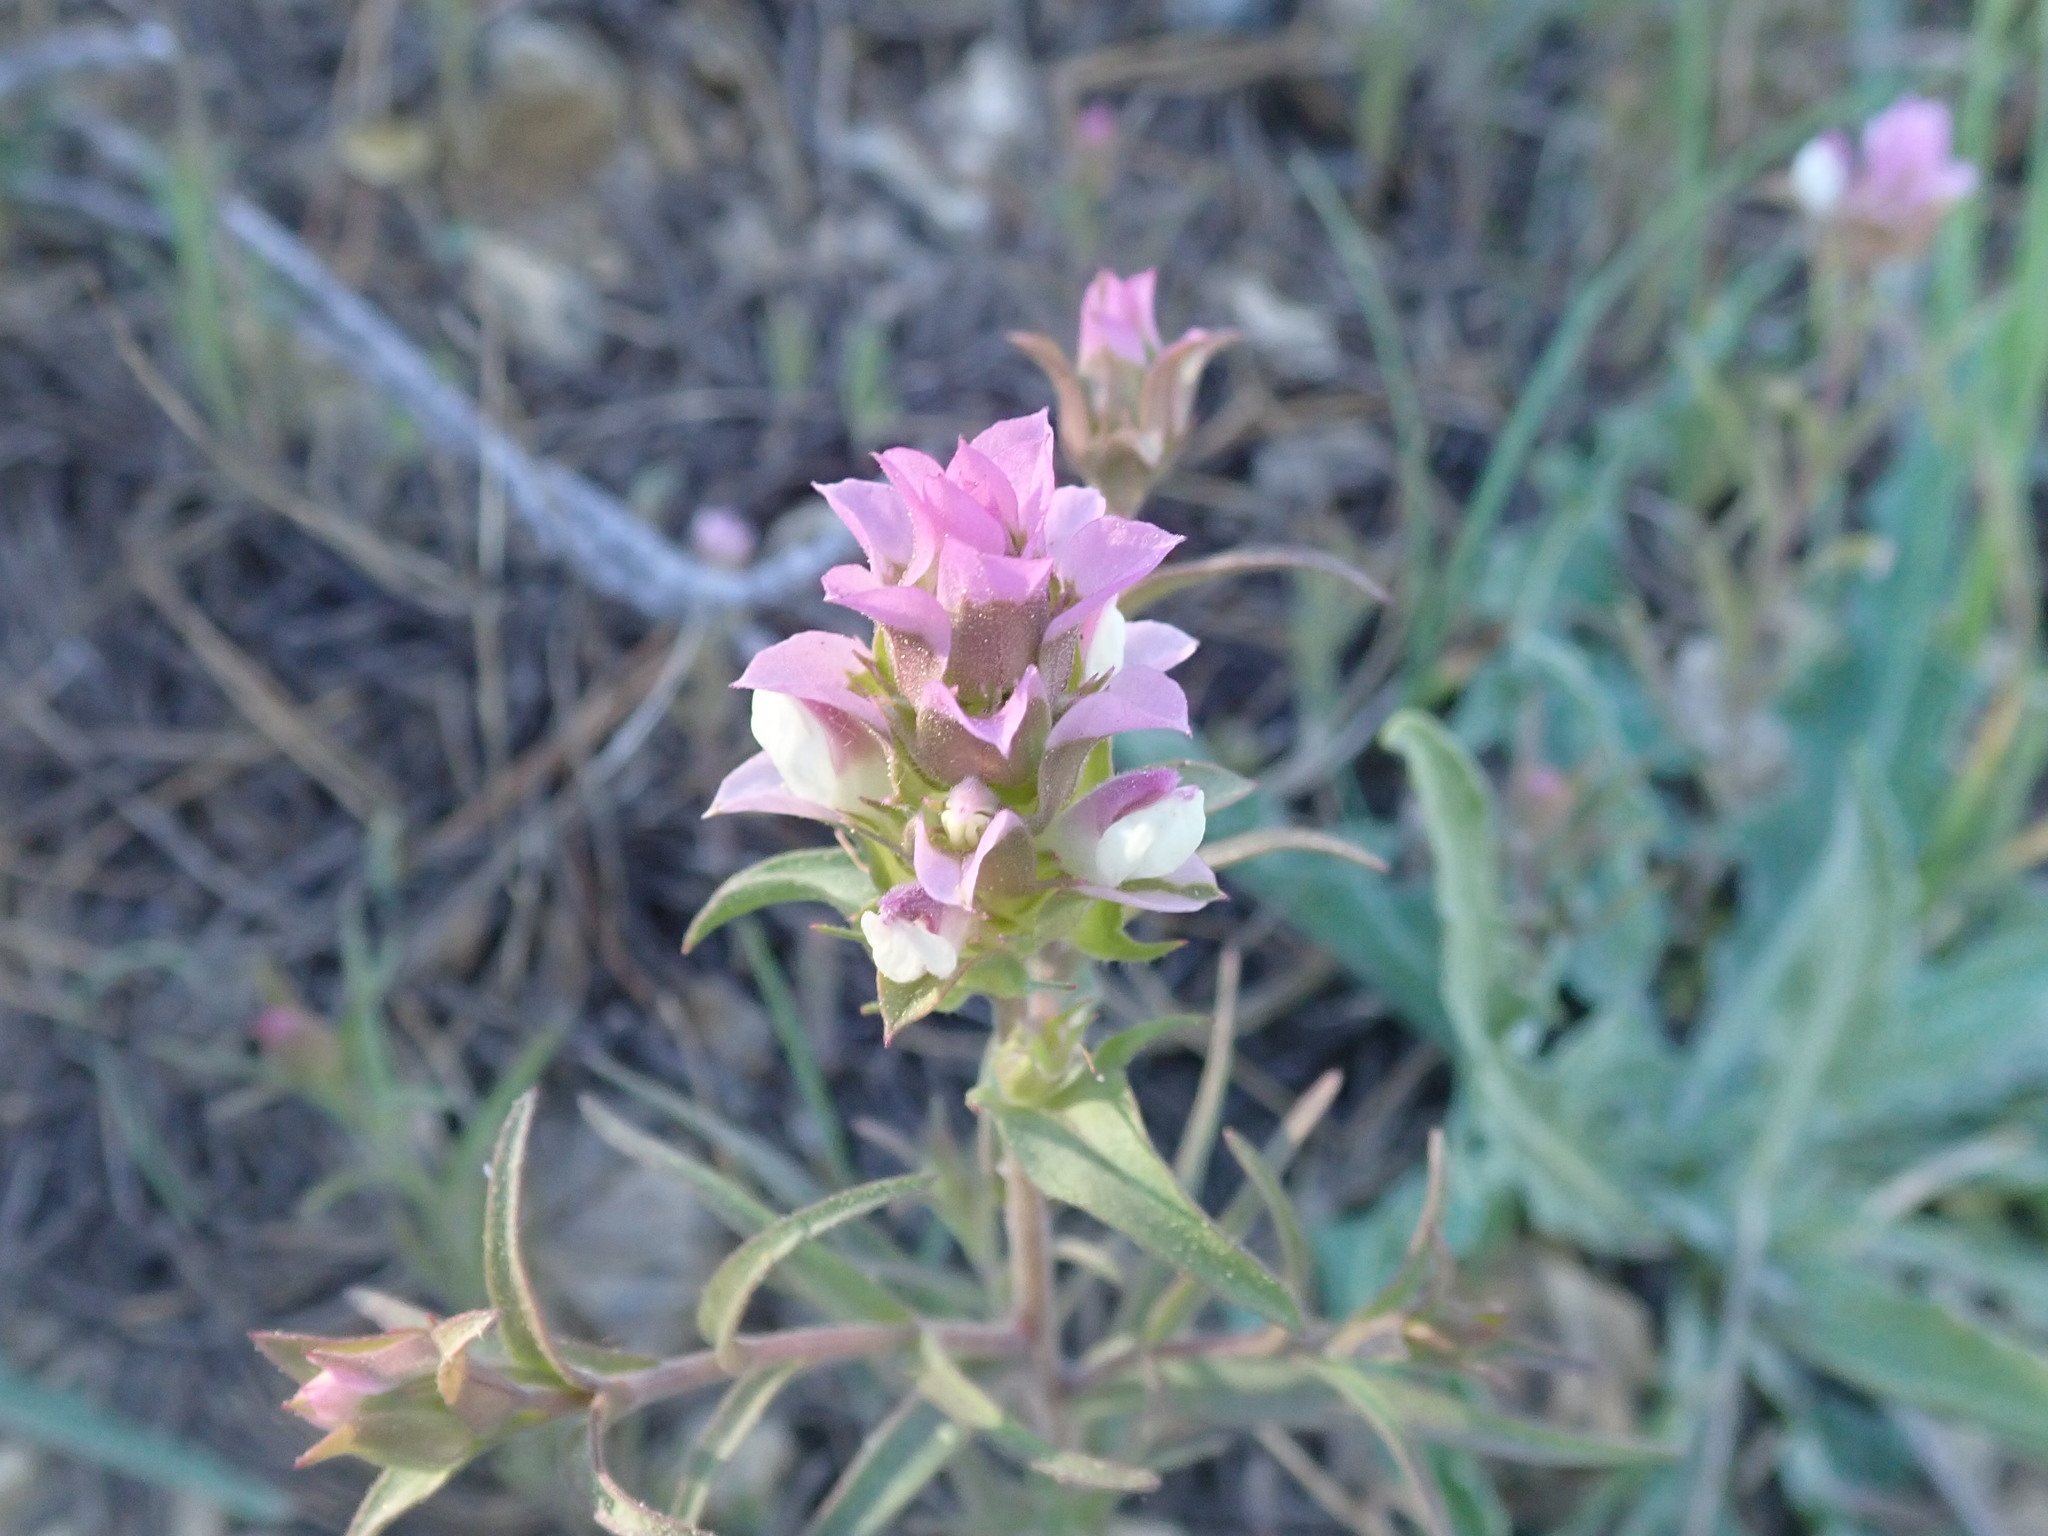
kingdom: Plantae
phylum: Tracheophyta
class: Magnoliopsida
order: Lamiales
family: Orobanchaceae
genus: Orthocarpus
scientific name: Orthocarpus cuspidatus
